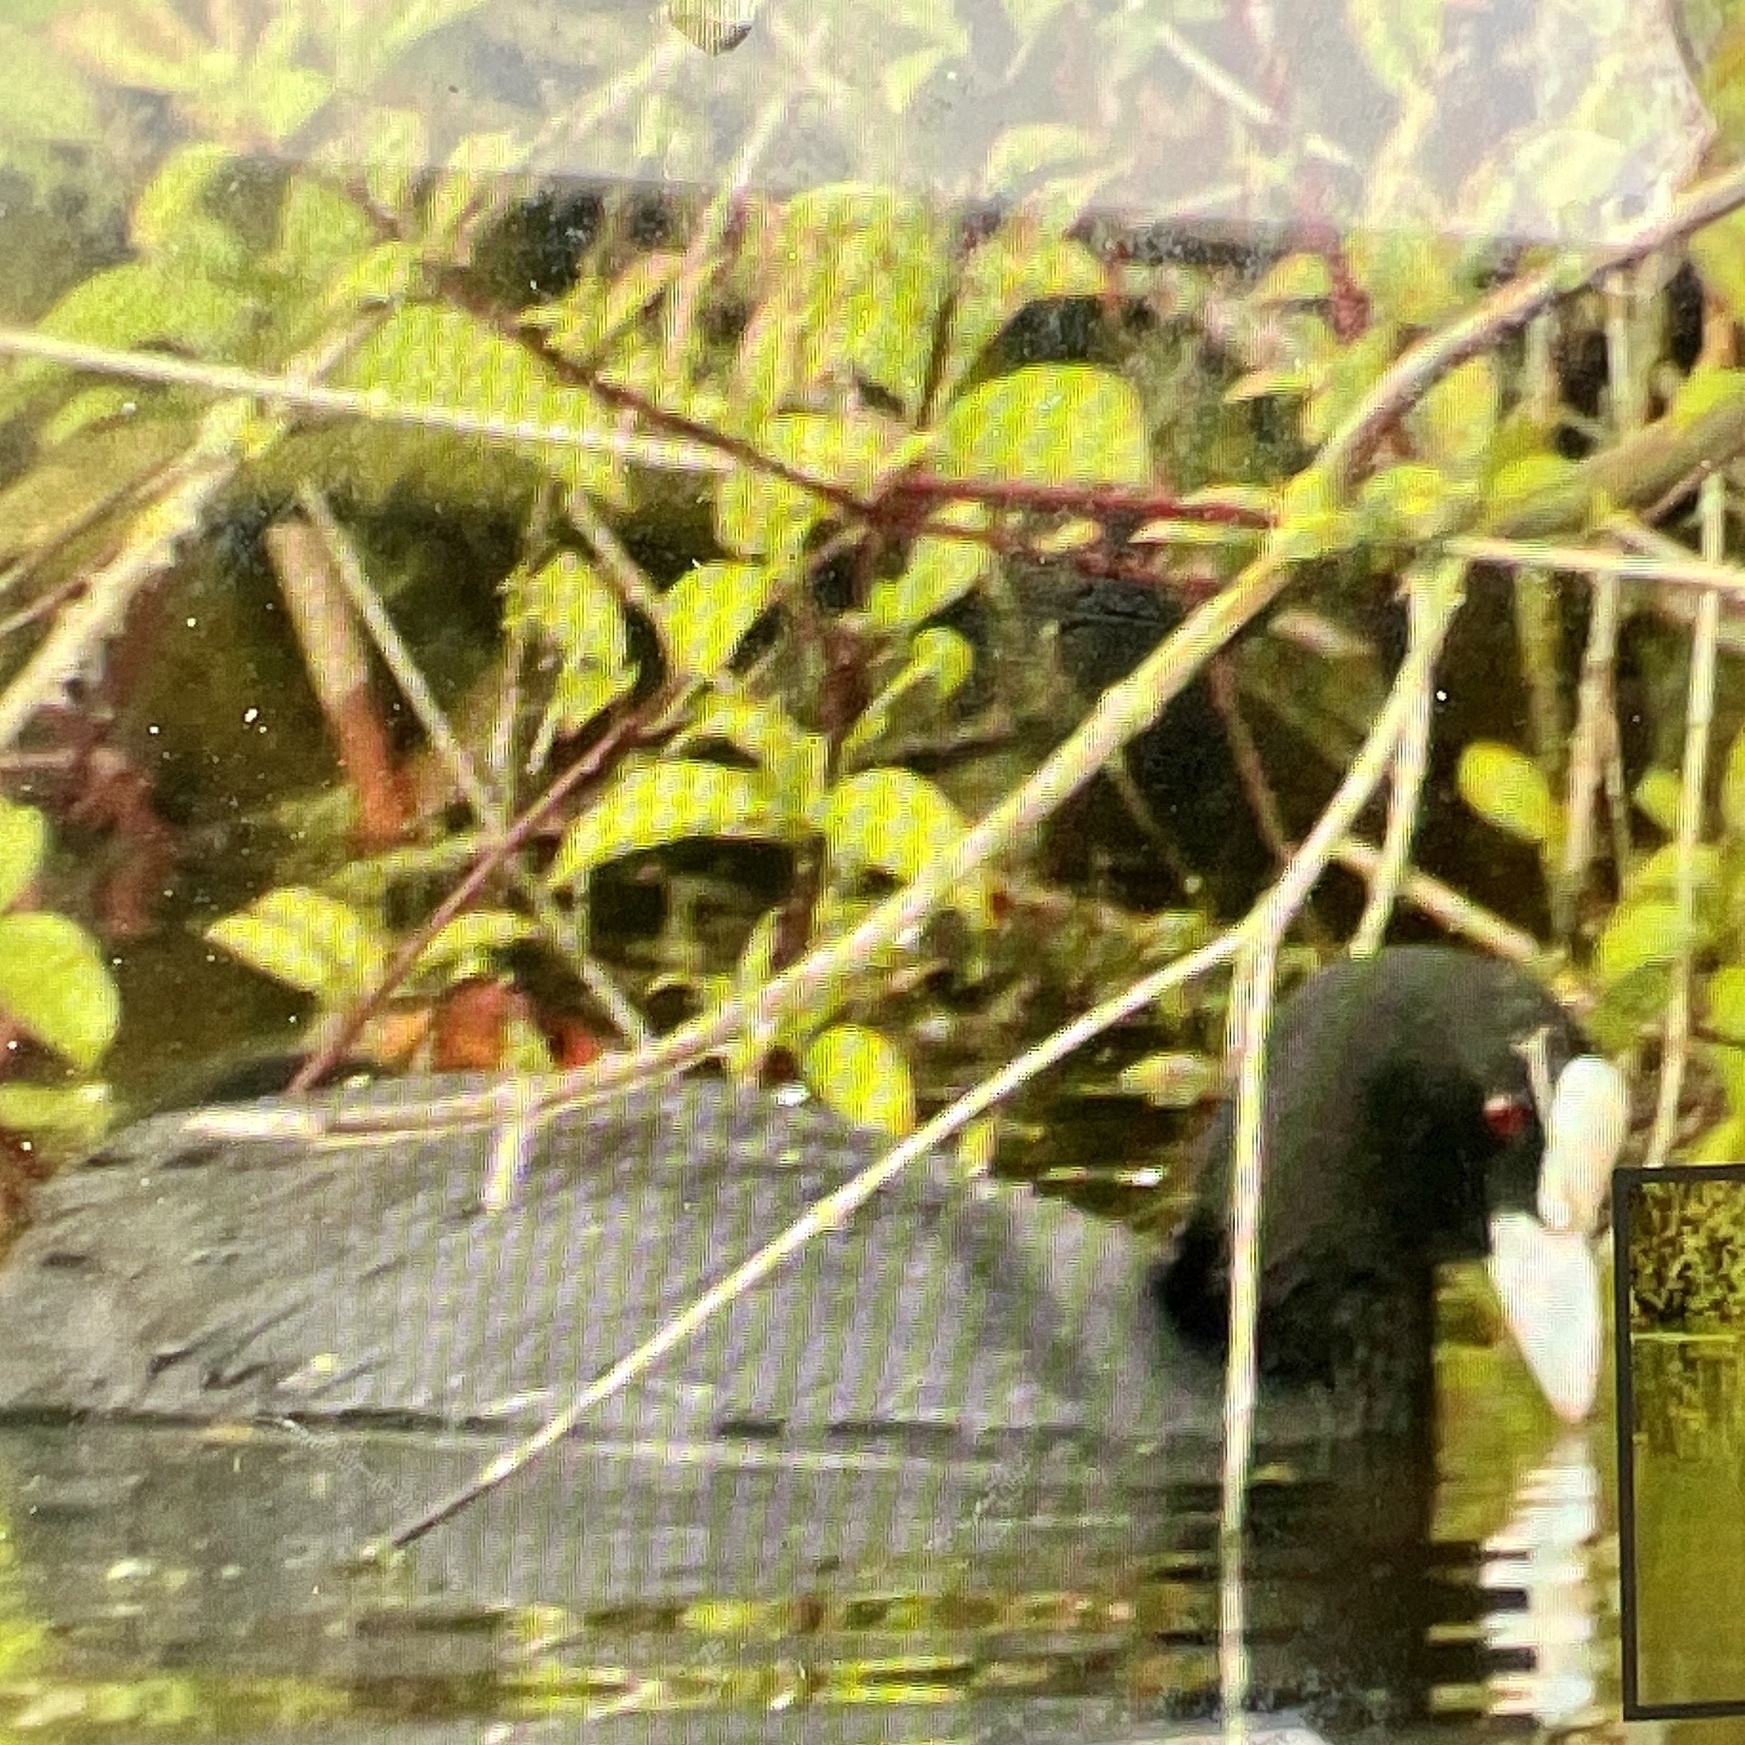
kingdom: Animalia
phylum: Chordata
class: Aves
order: Gruiformes
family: Rallidae
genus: Fulica
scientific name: Fulica atra
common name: Eurasian coot
